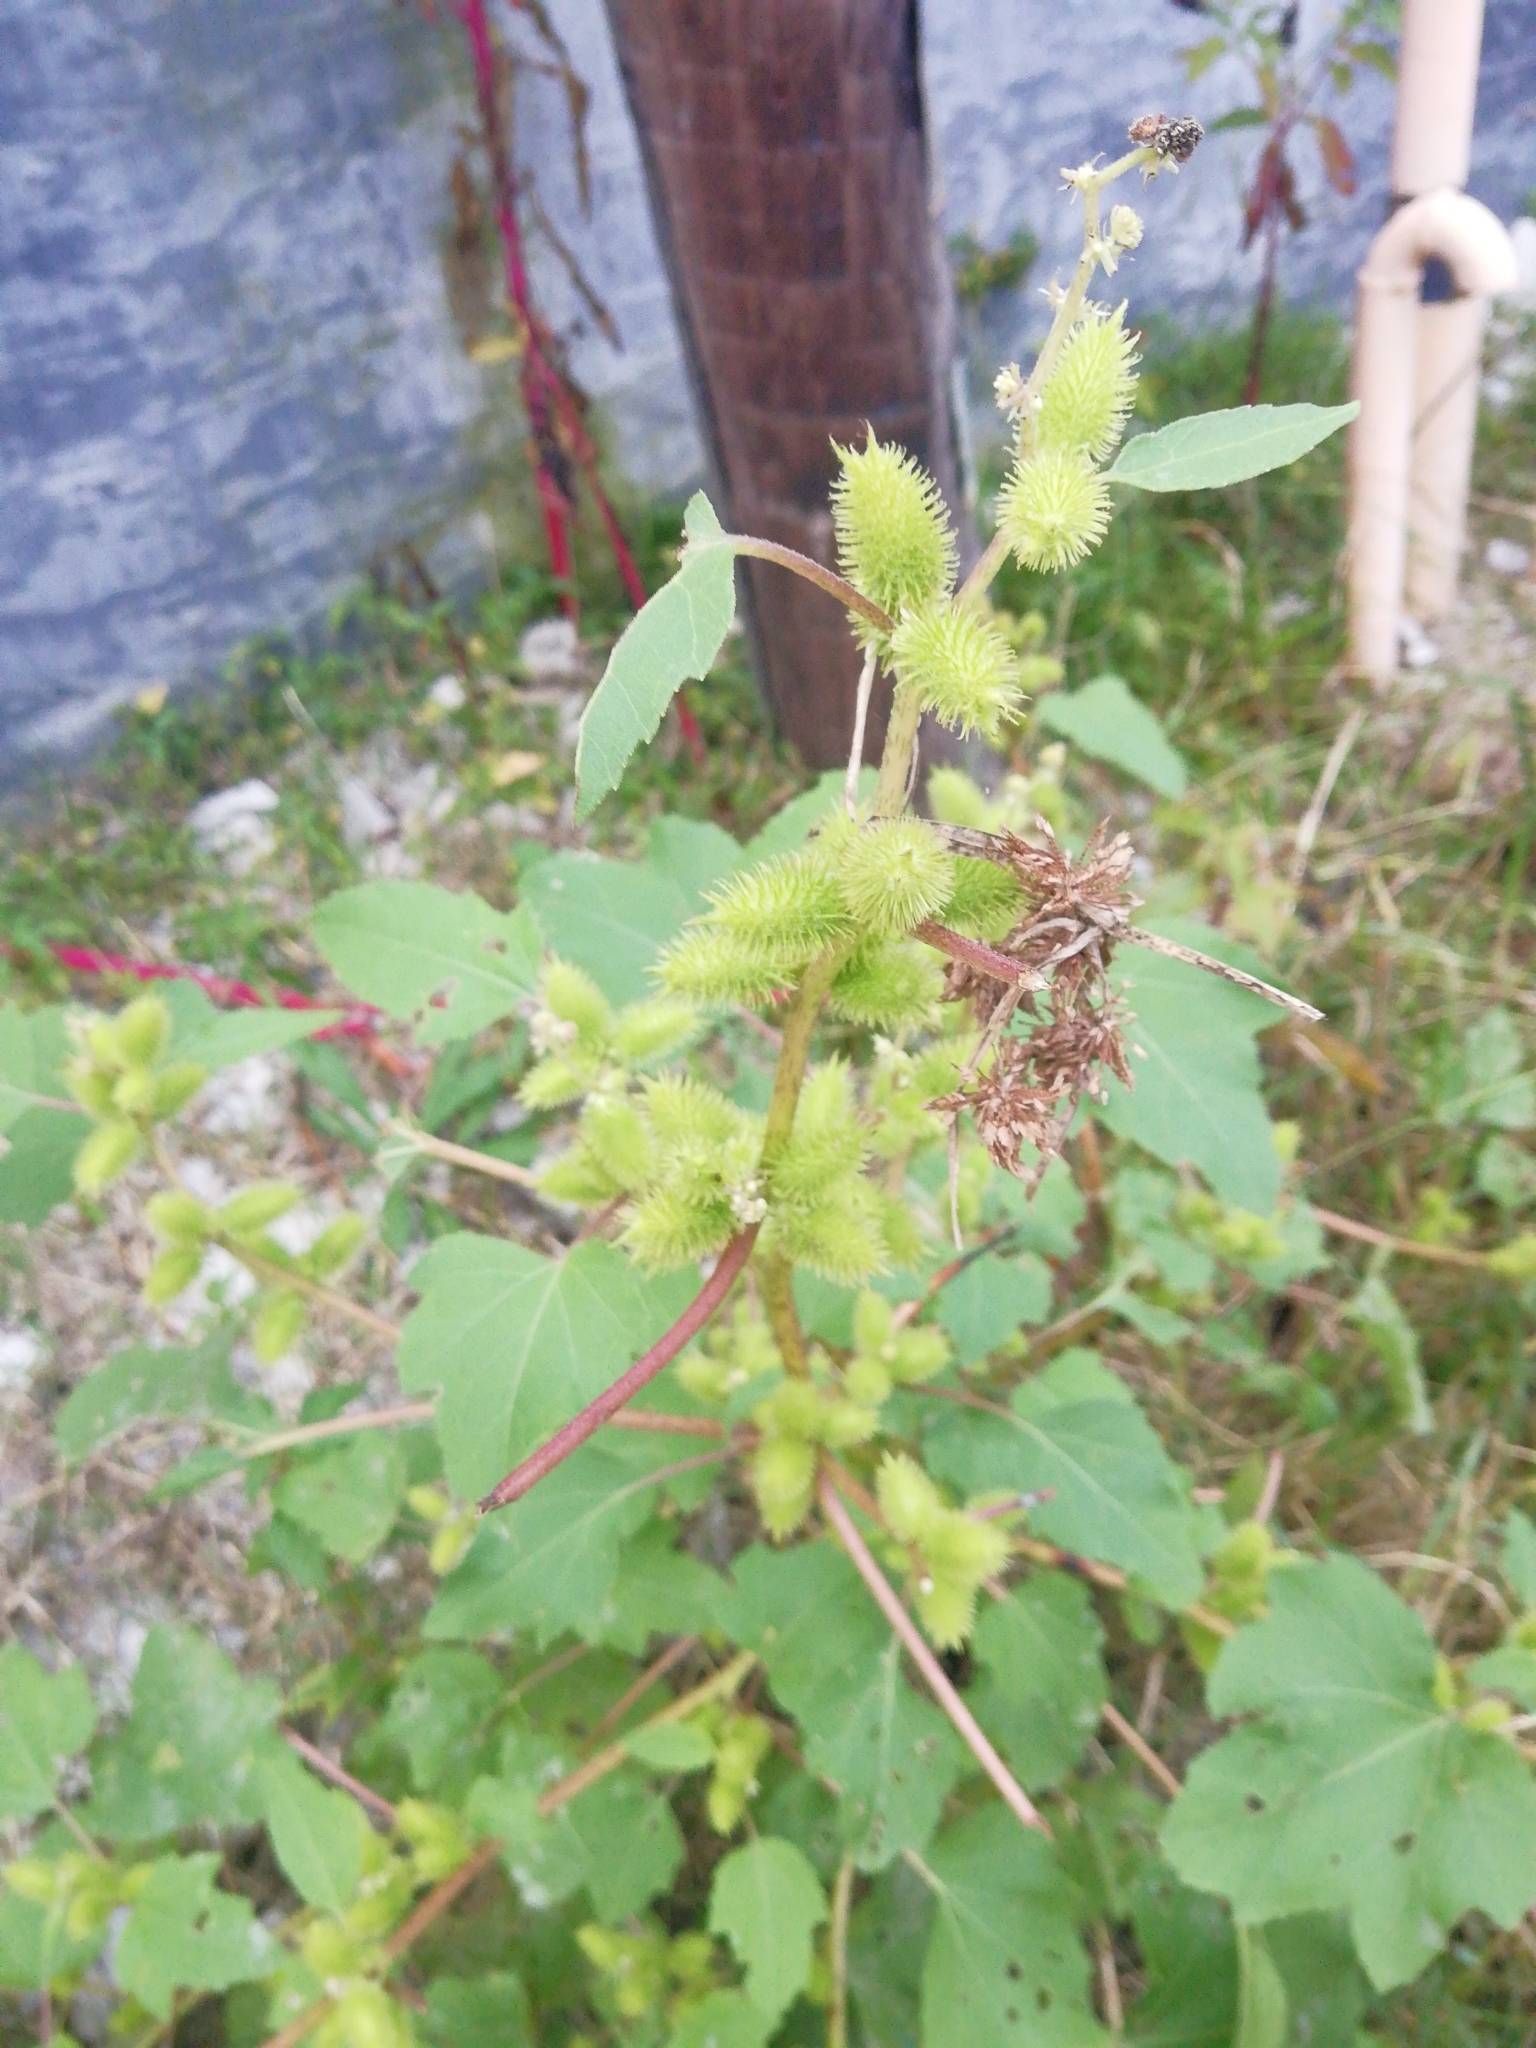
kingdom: Plantae
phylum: Tracheophyta
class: Magnoliopsida
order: Asterales
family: Asteraceae
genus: Xanthium
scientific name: Xanthium orientale
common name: Californian burr
